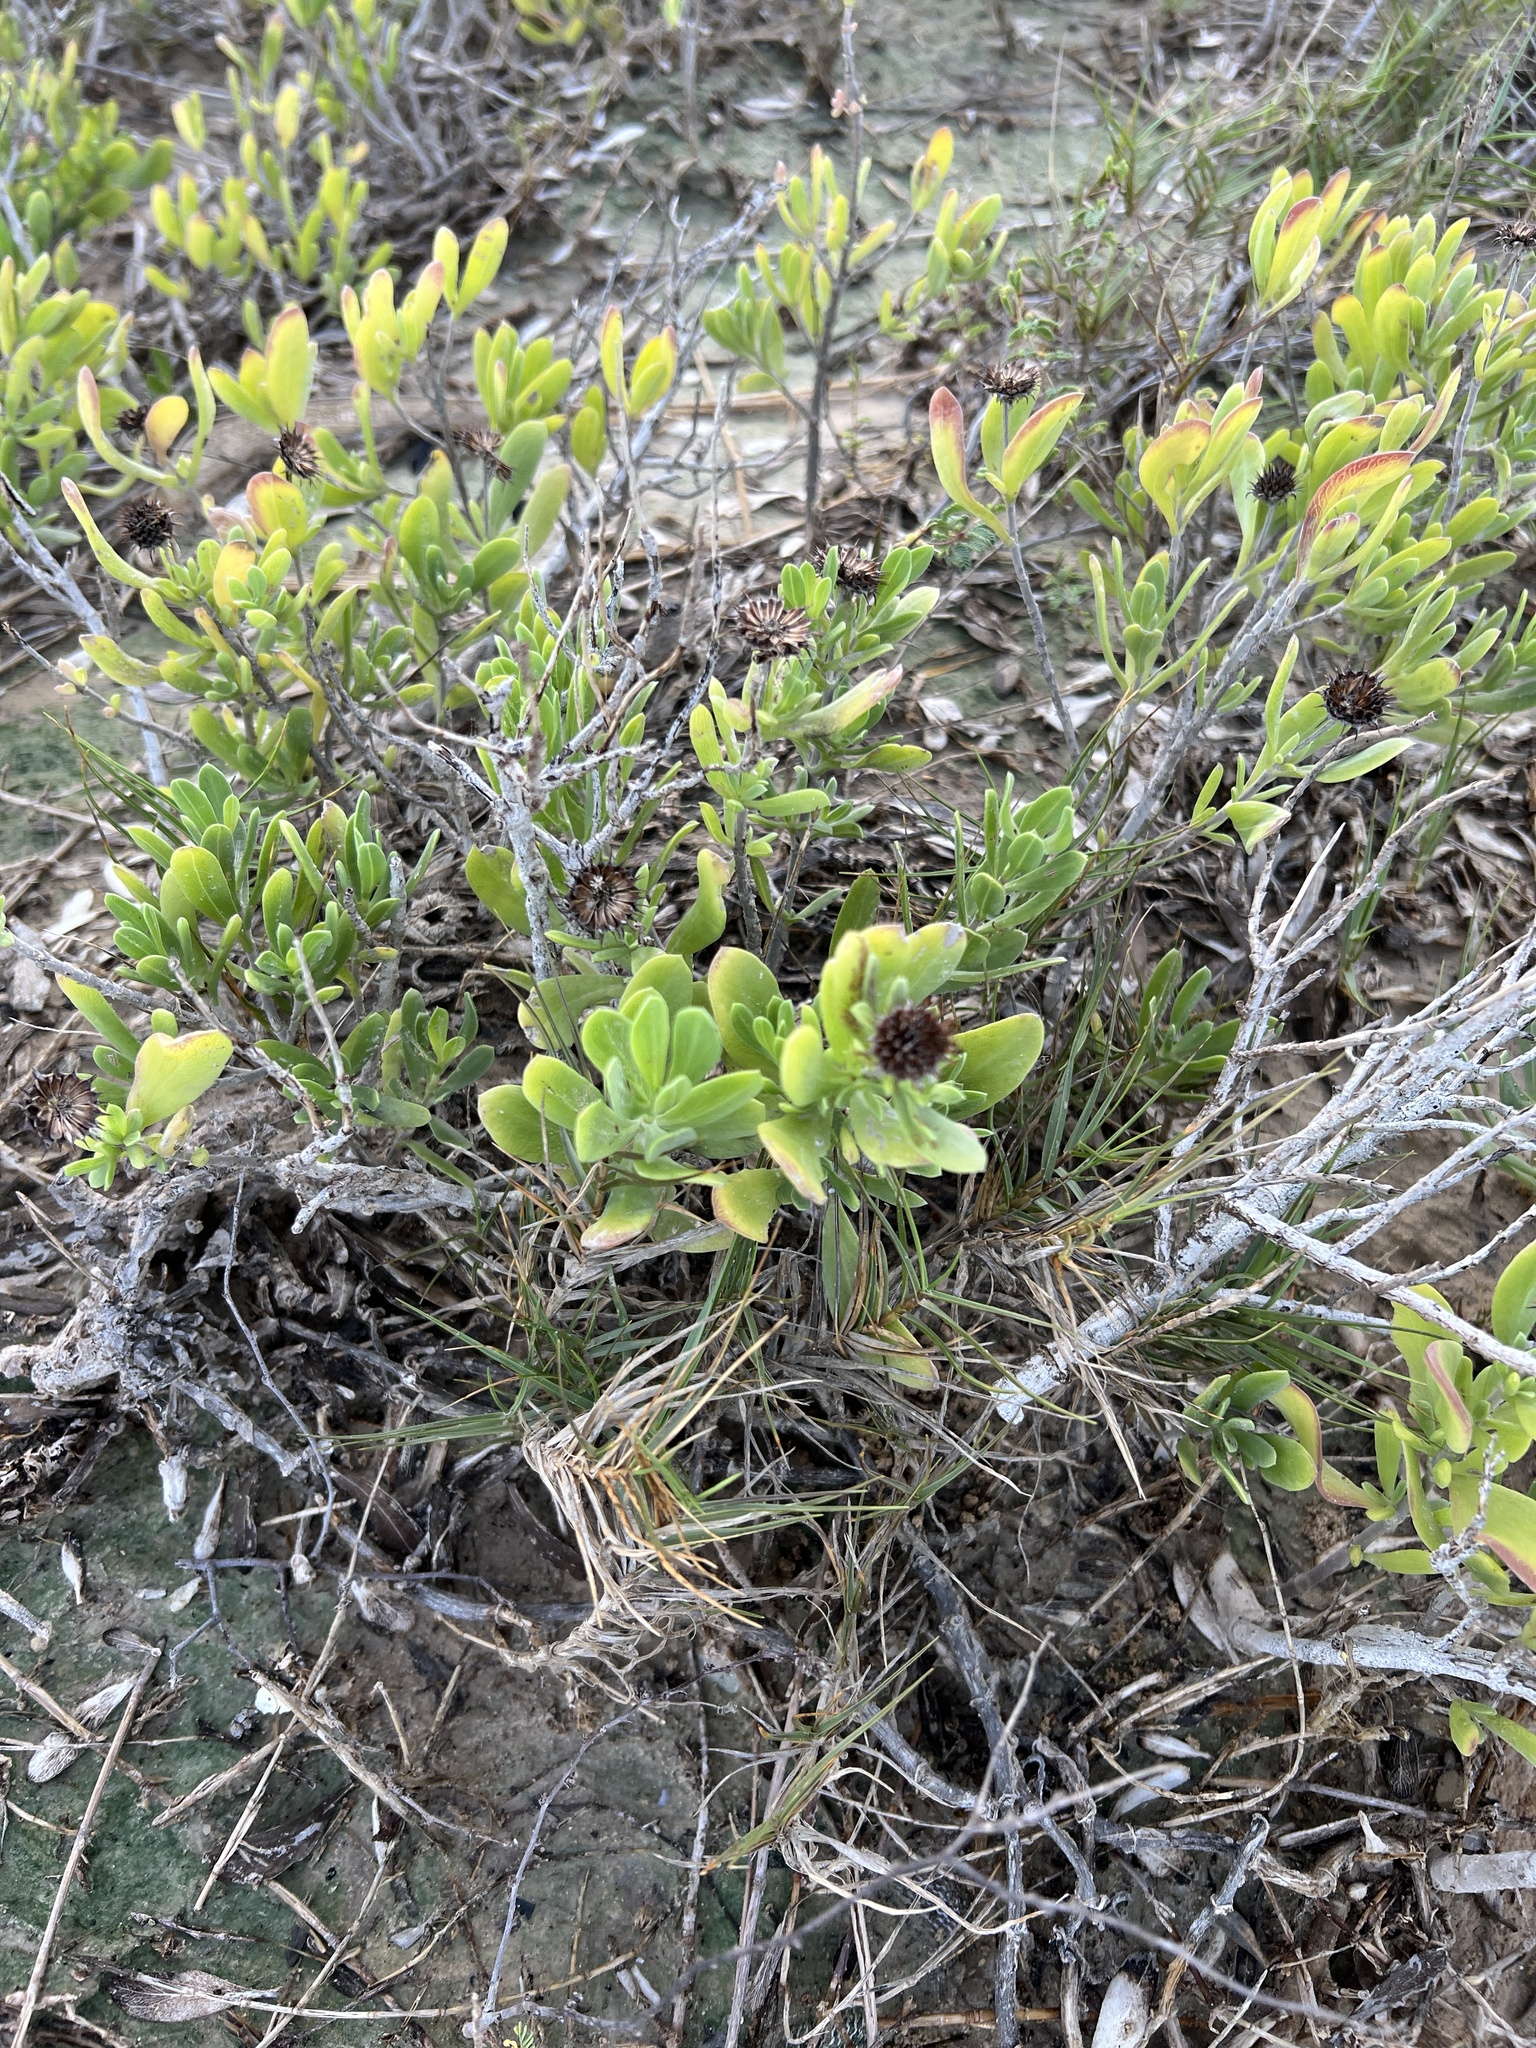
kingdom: Plantae
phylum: Tracheophyta
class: Magnoliopsida
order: Asterales
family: Asteraceae
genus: Borrichia
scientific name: Borrichia frutescens
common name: Sea oxeye
